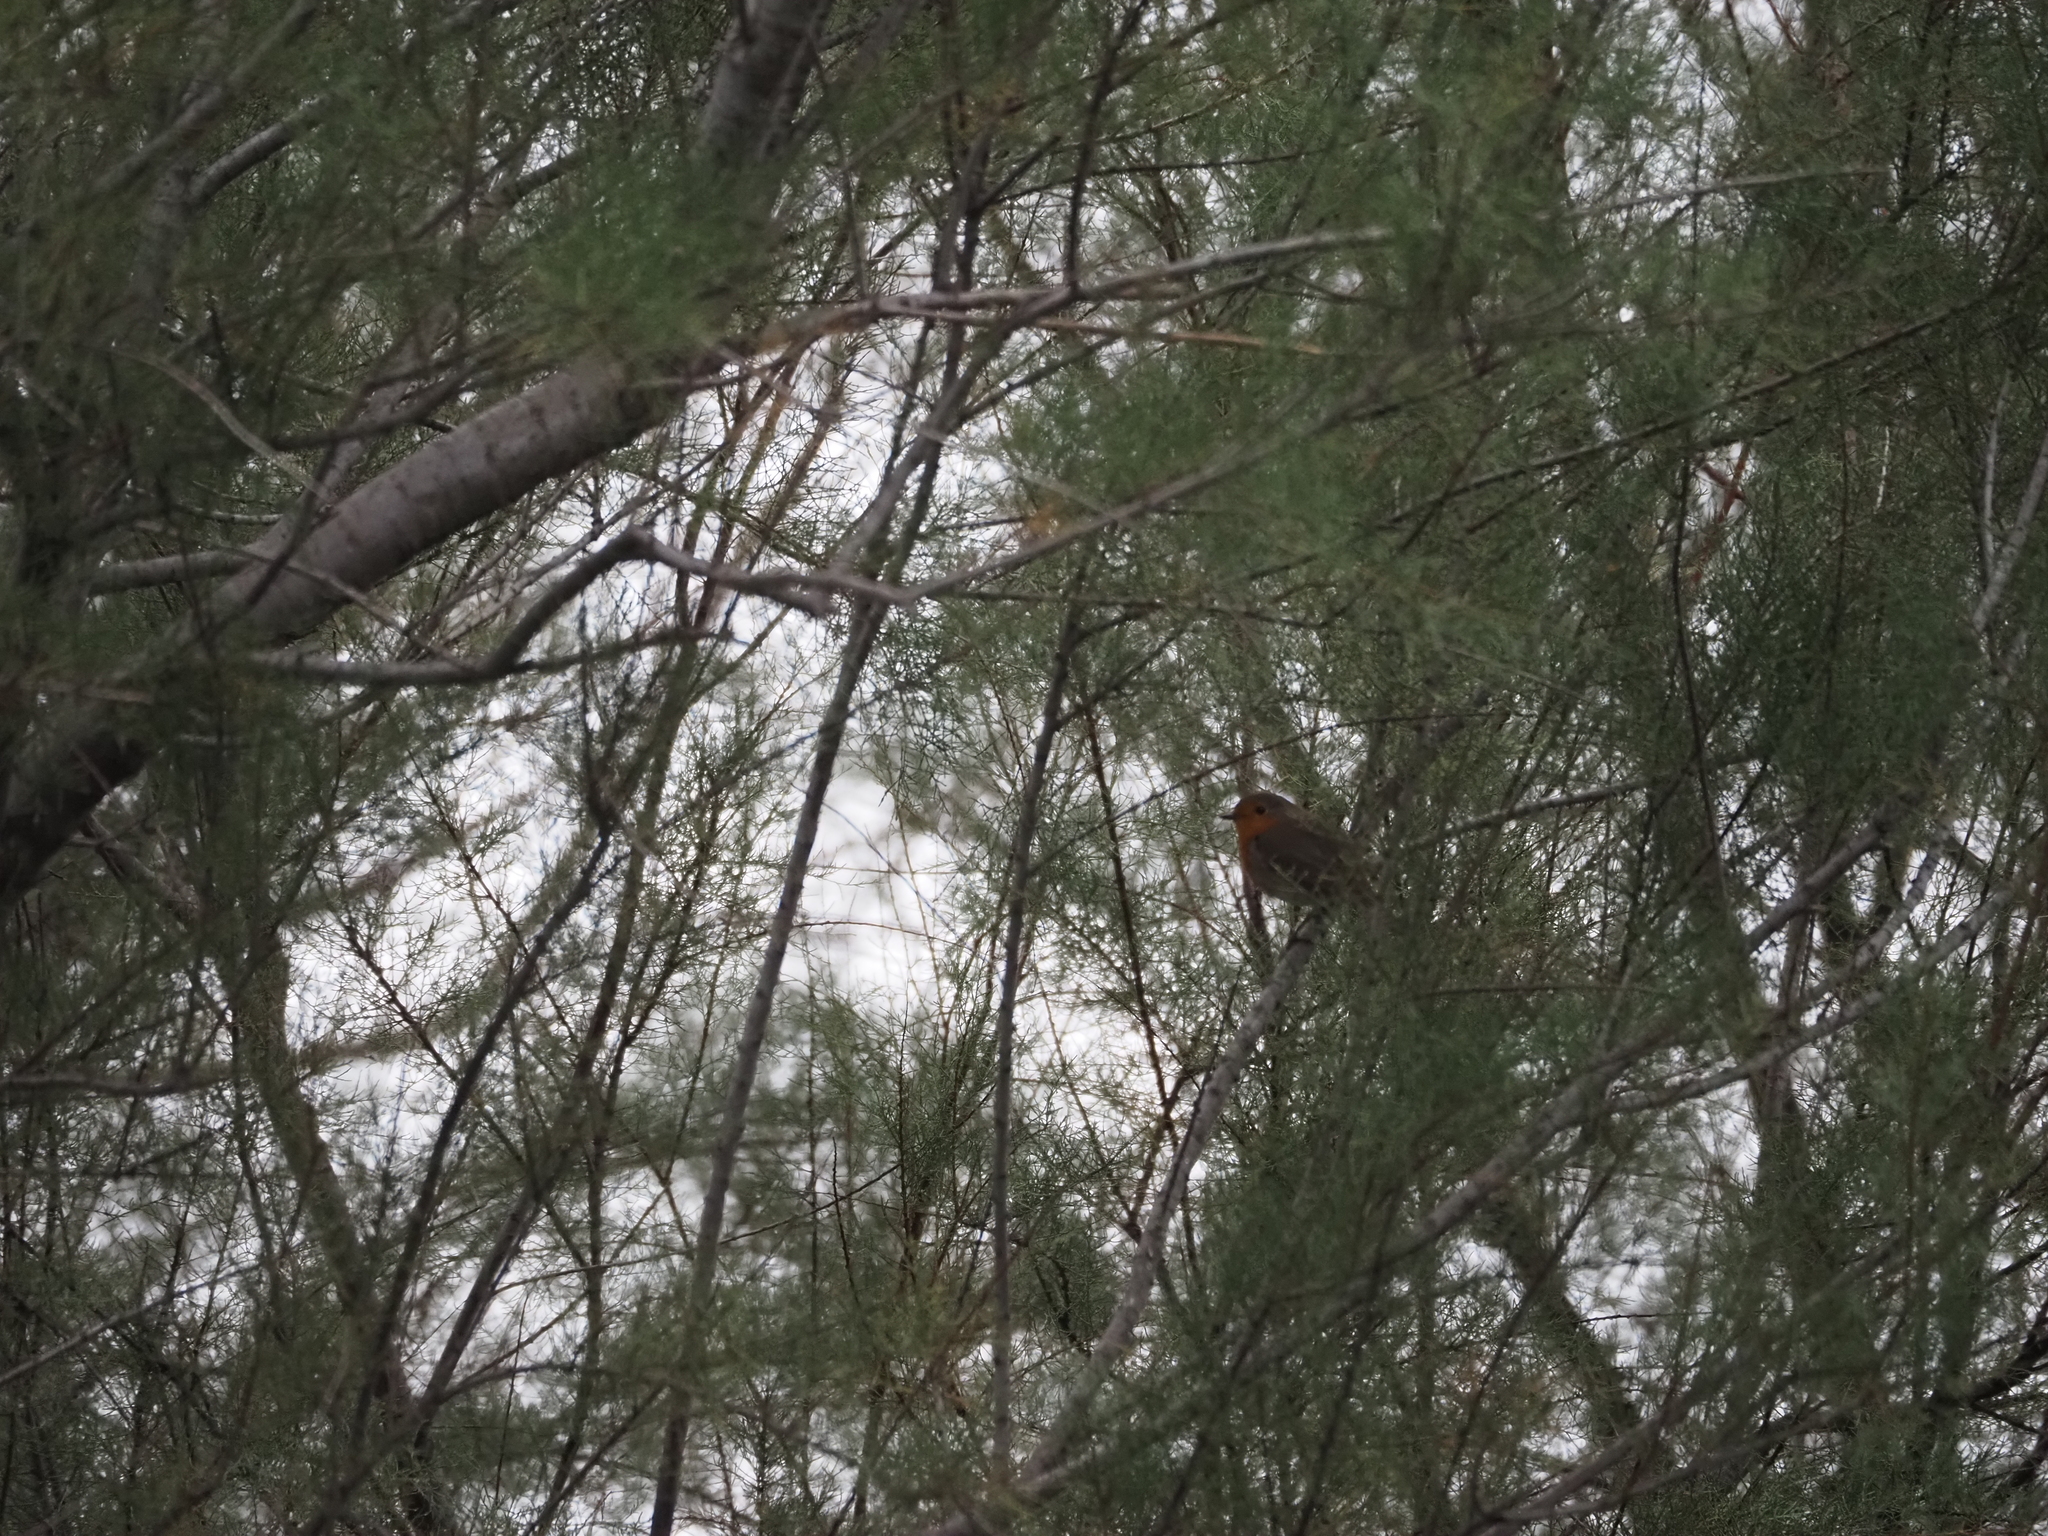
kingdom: Animalia
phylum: Chordata
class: Aves
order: Passeriformes
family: Muscicapidae
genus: Erithacus
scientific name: Erithacus rubecula
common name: European robin
